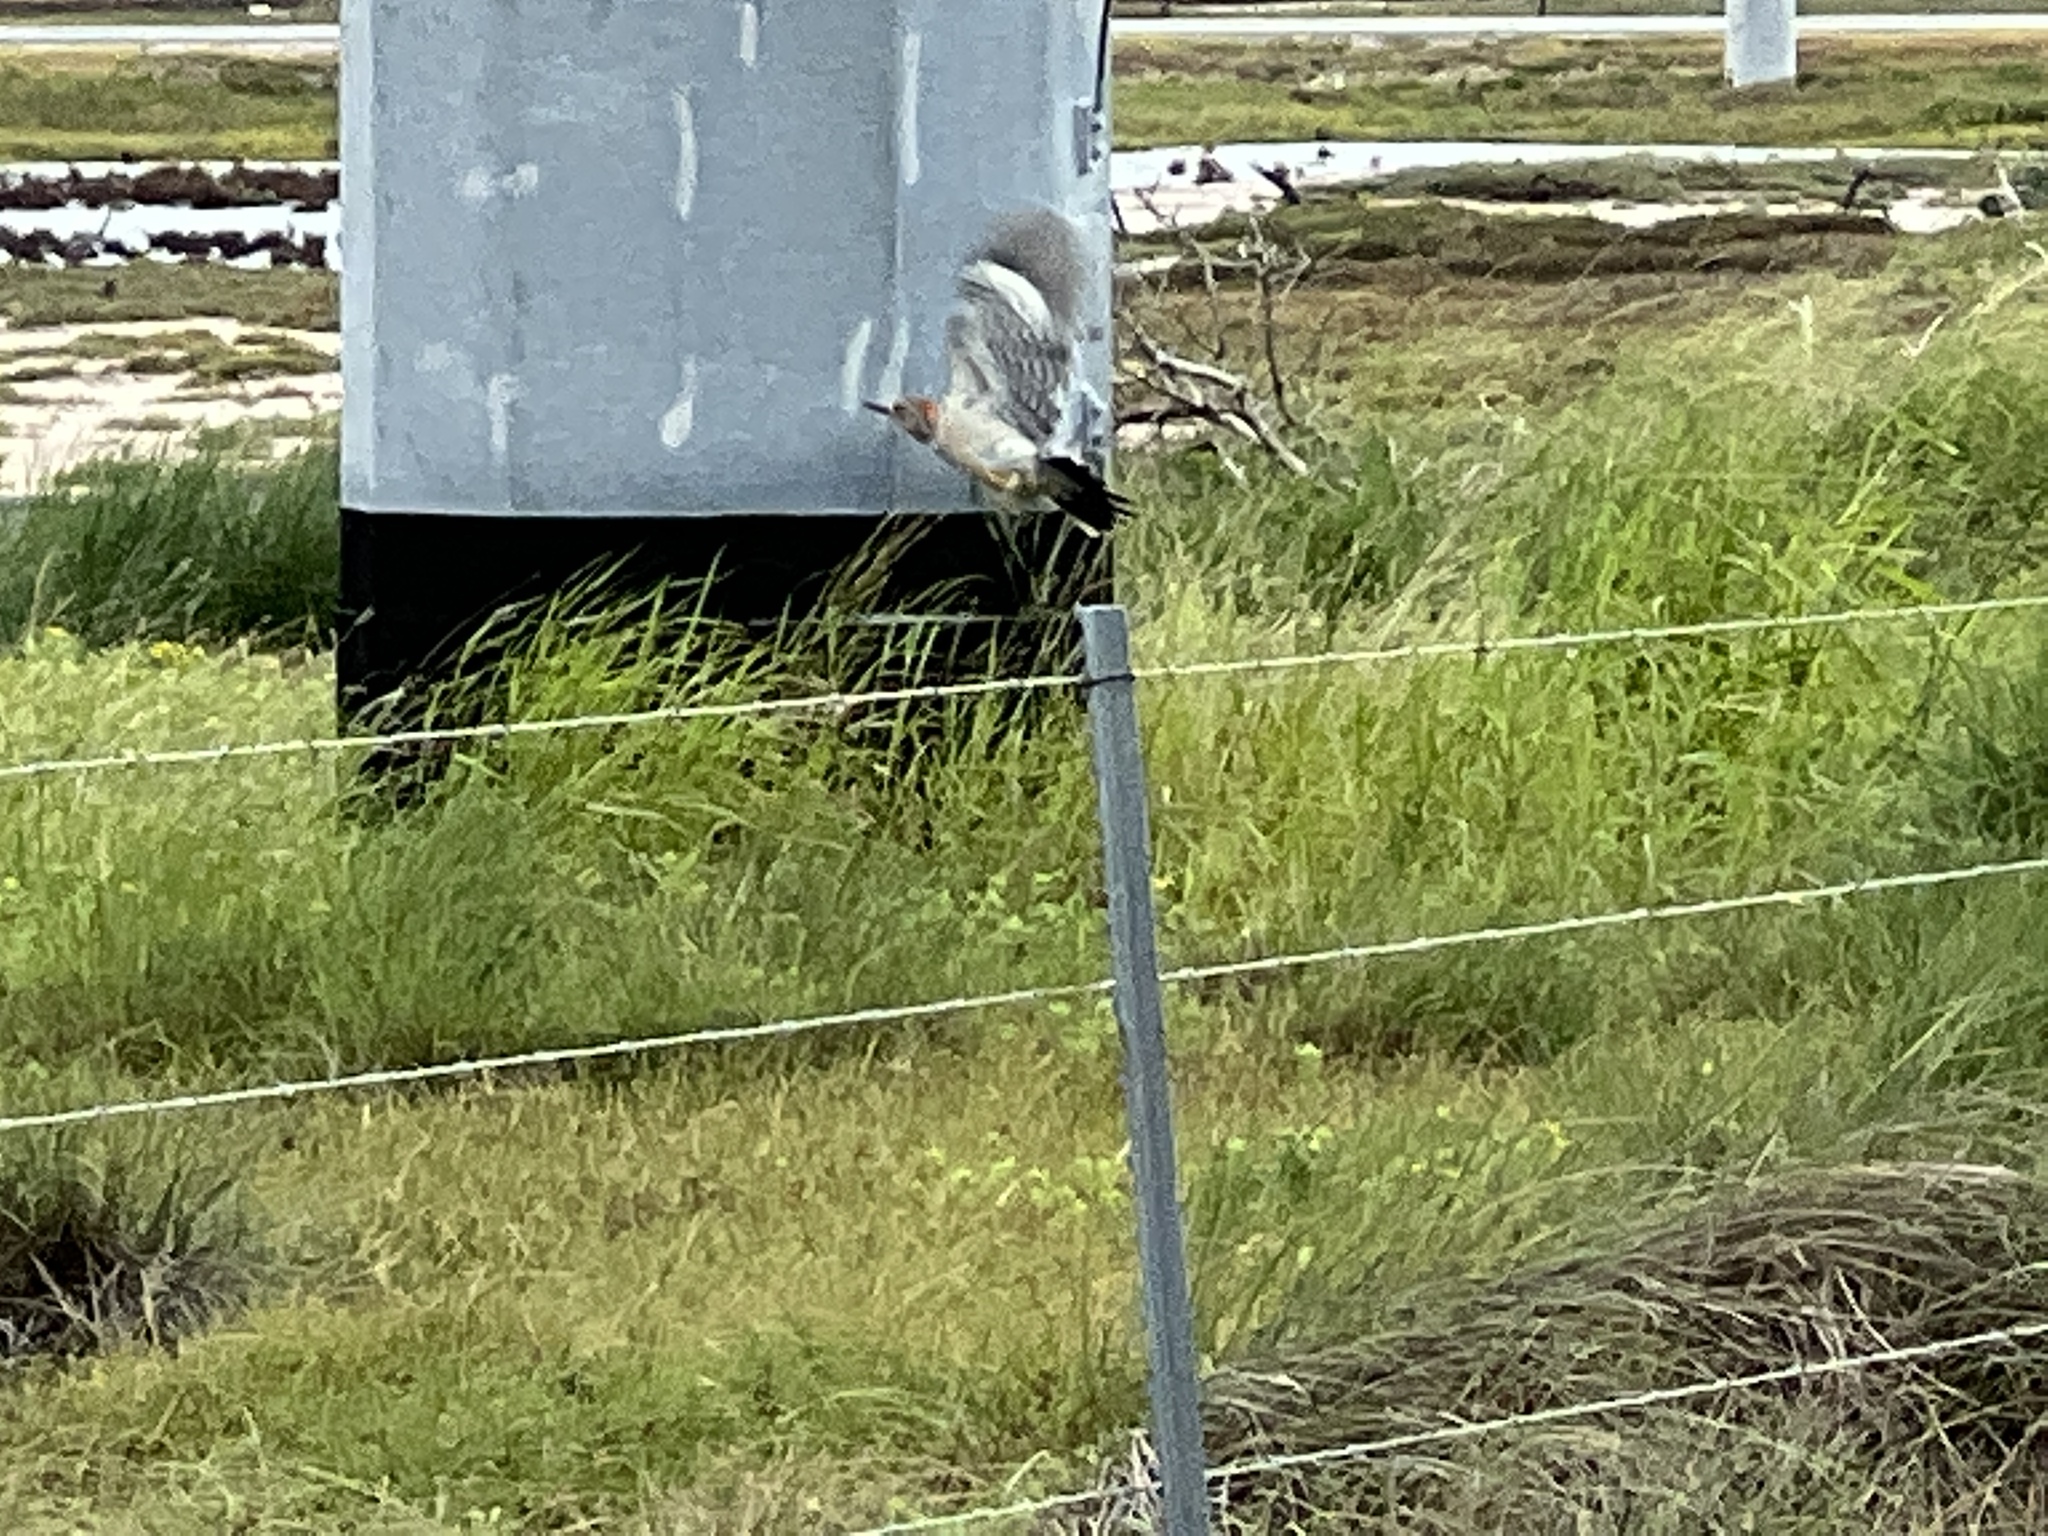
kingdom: Animalia
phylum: Chordata
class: Aves
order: Piciformes
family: Picidae
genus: Melanerpes
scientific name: Melanerpes aurifrons
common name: Golden-fronted woodpecker
